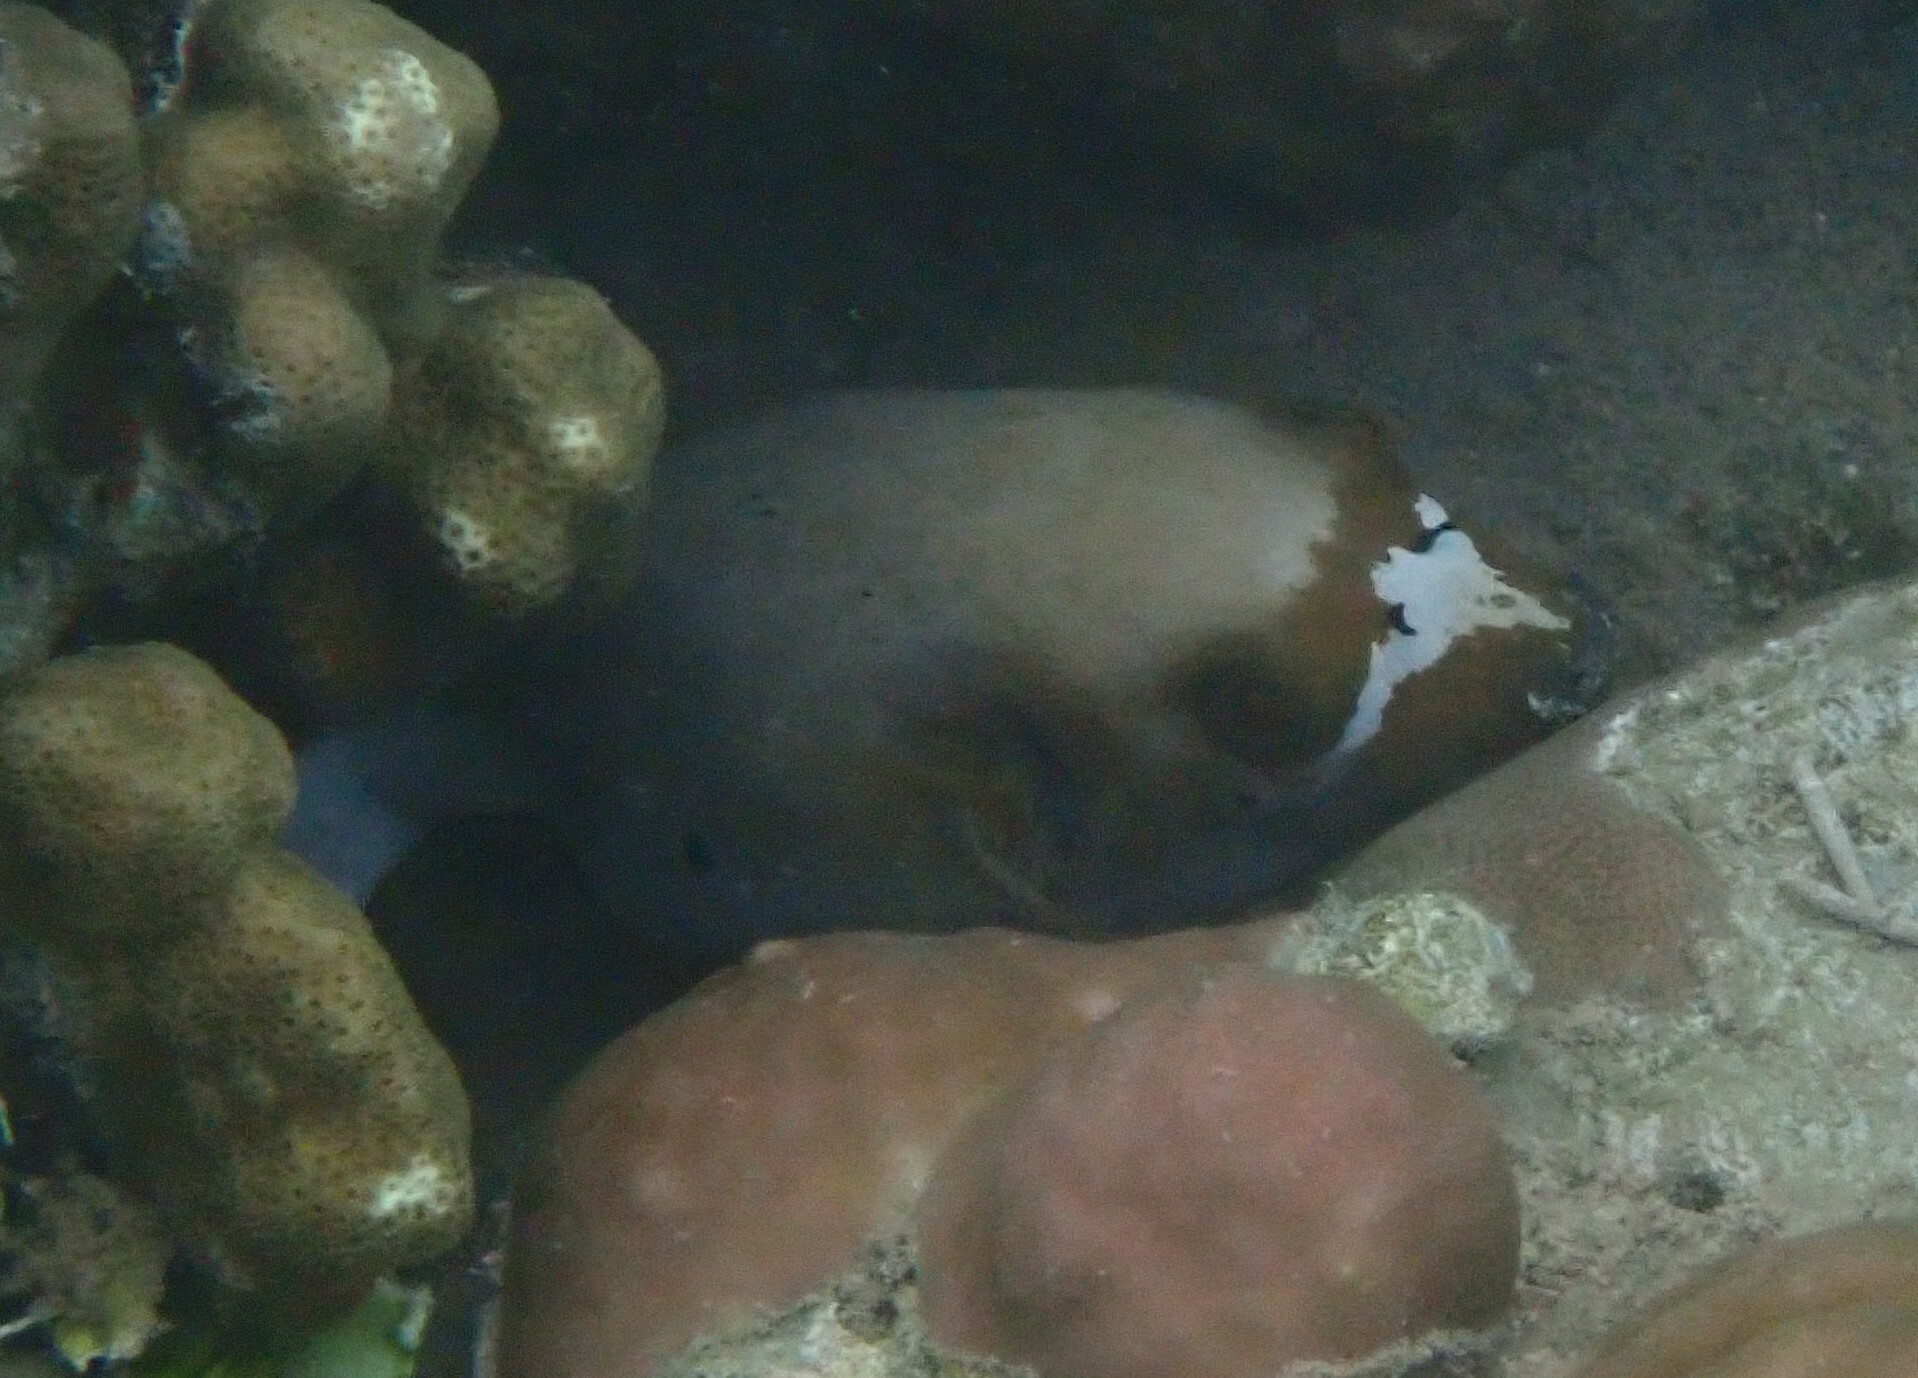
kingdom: Animalia
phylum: Chordata
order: Tetraodontiformes
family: Tetraodontidae
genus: Arothron
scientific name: Arothron nigropunctatus
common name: Black spotted blow fish
